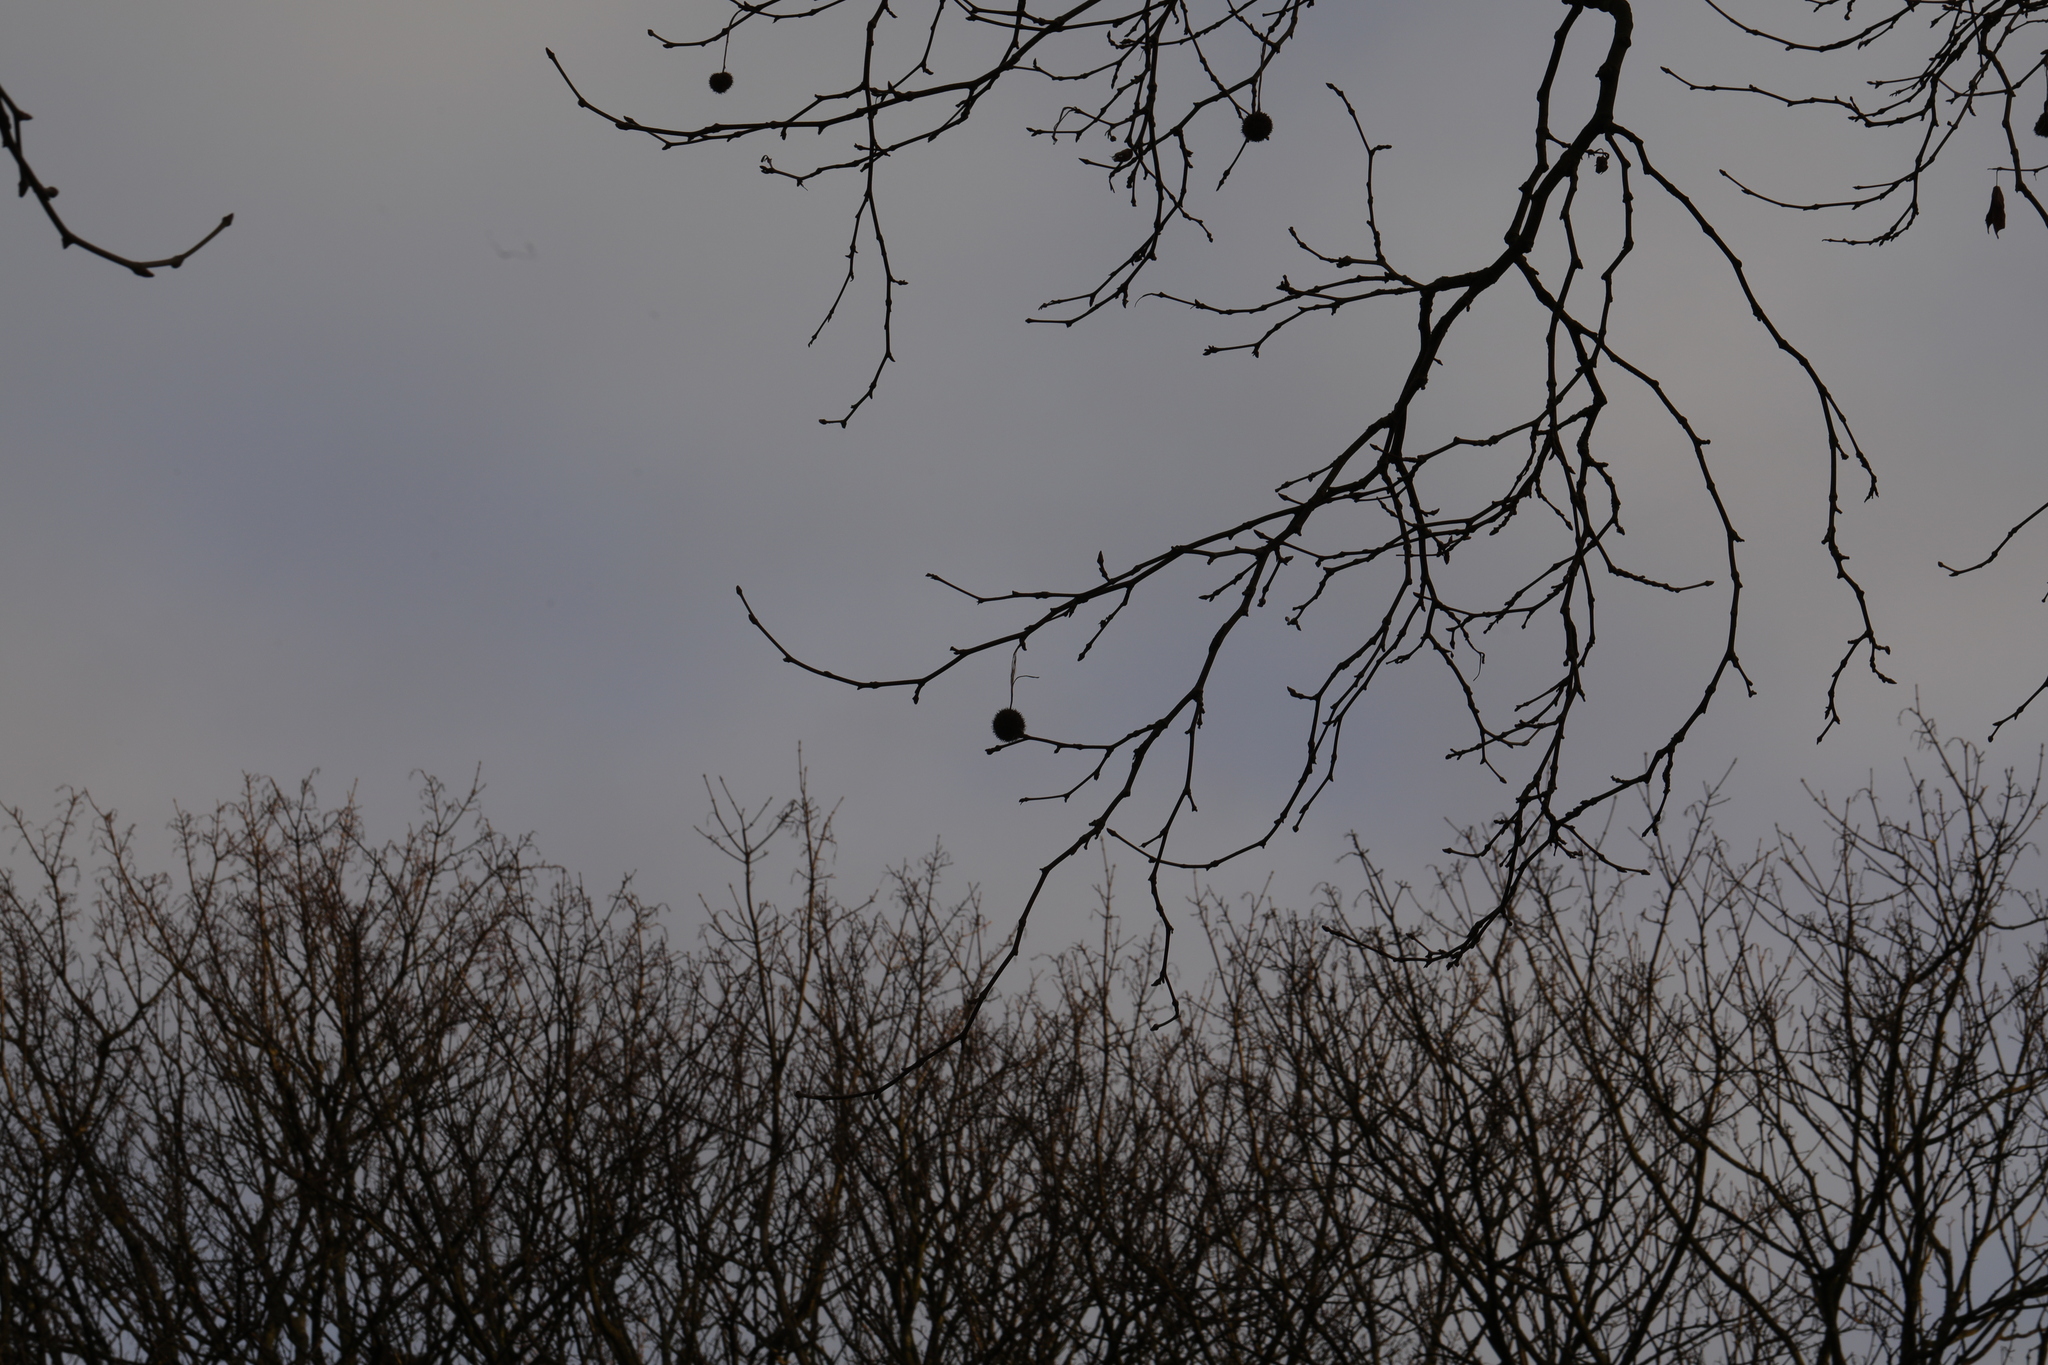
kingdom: Plantae
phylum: Tracheophyta
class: Magnoliopsida
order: Proteales
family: Platanaceae
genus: Platanus
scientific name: Platanus hispanica
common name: London plane
